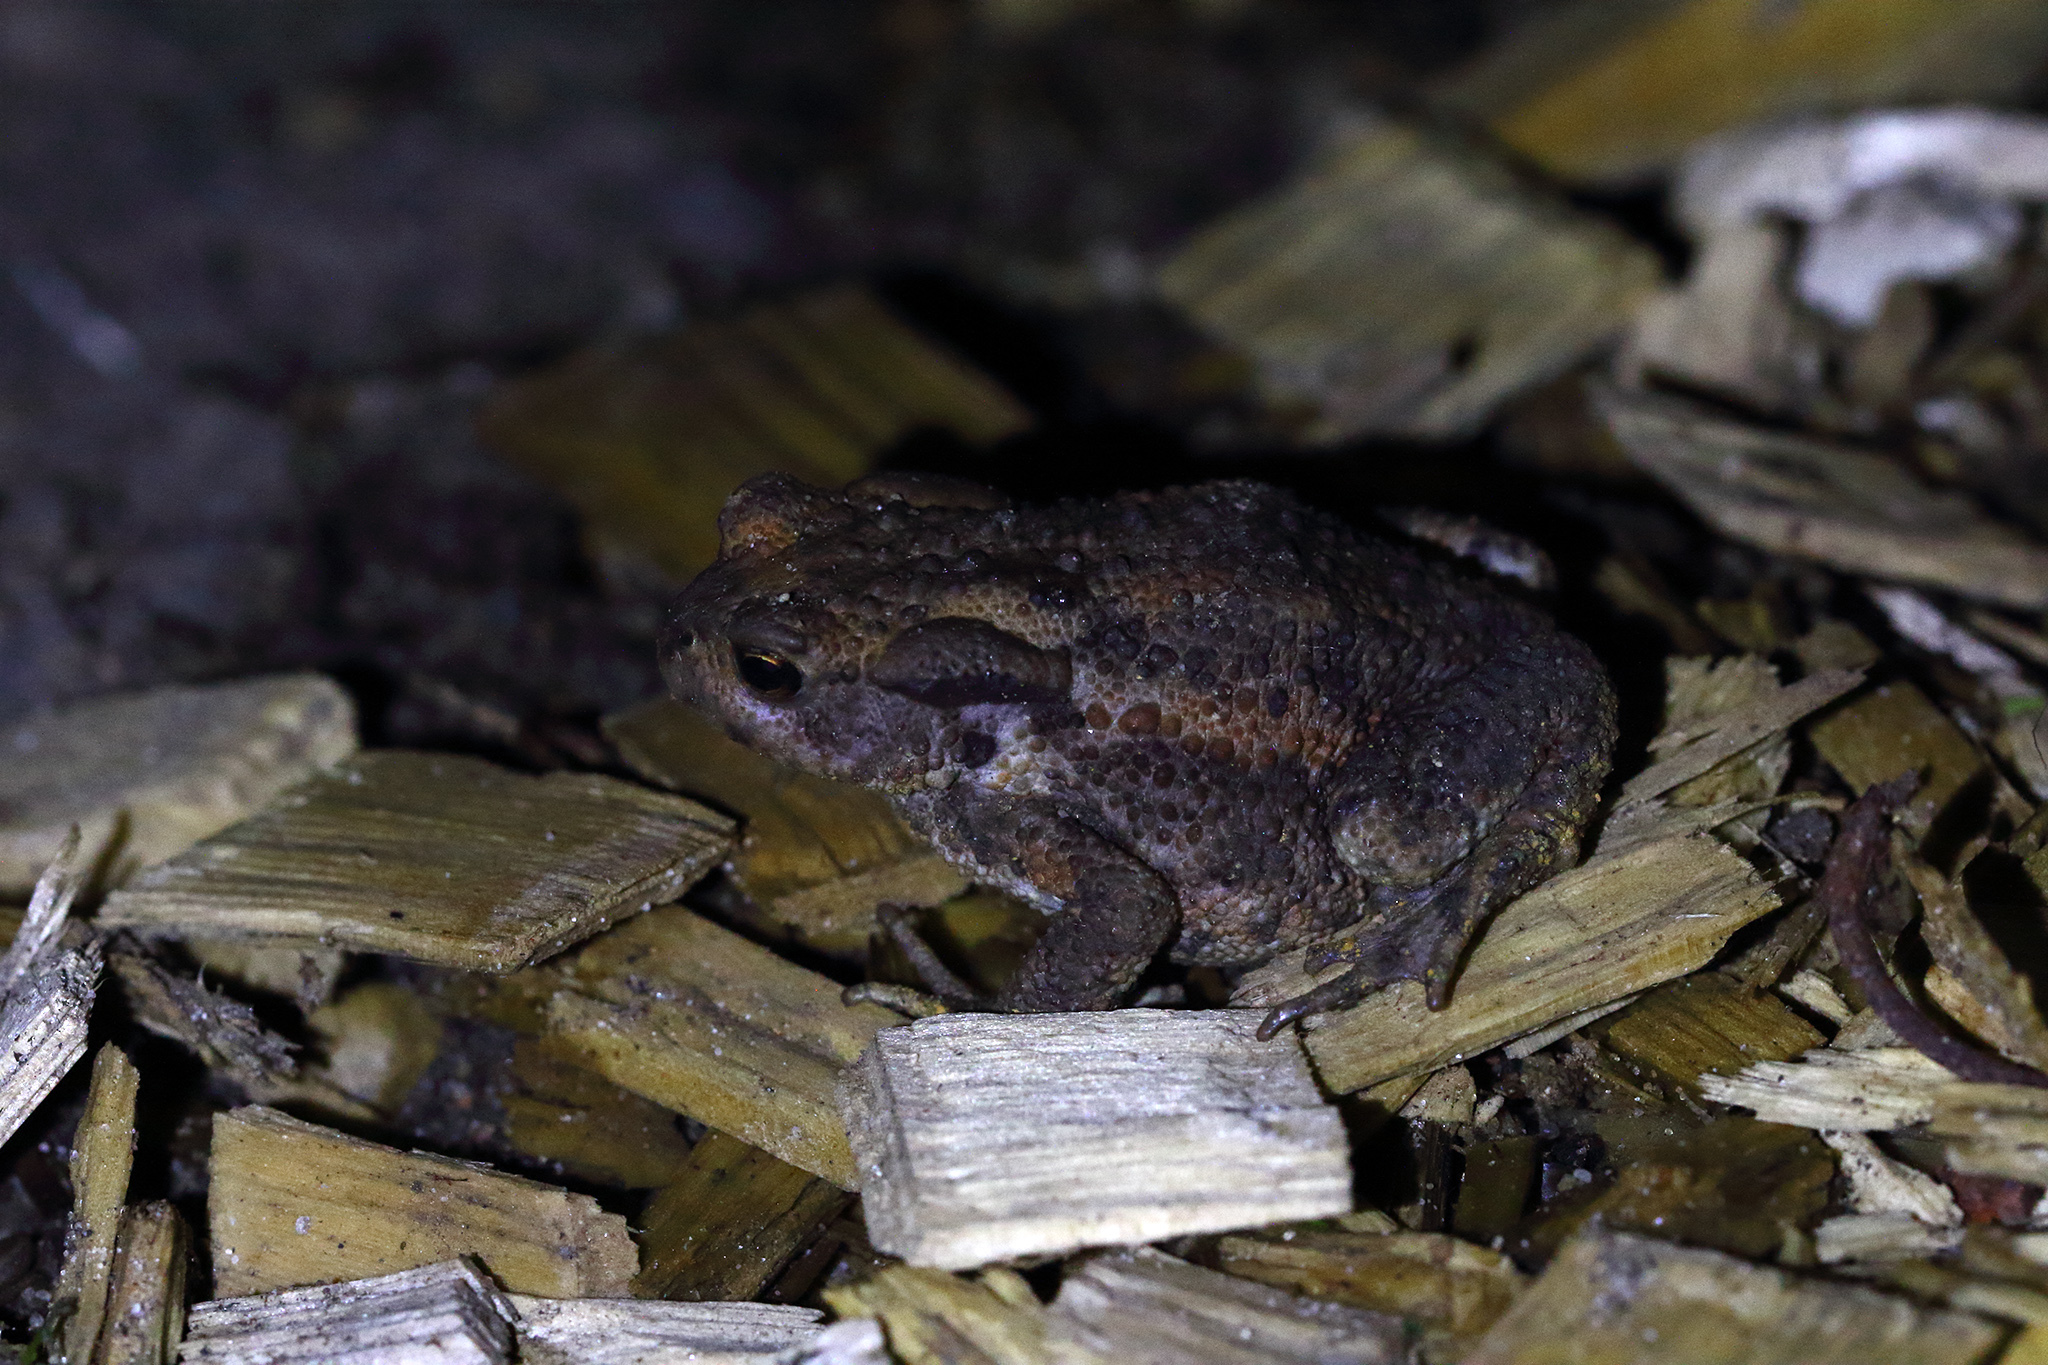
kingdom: Animalia
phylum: Chordata
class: Amphibia
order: Anura
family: Bufonidae
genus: Bufo
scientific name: Bufo bufo
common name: Common toad
